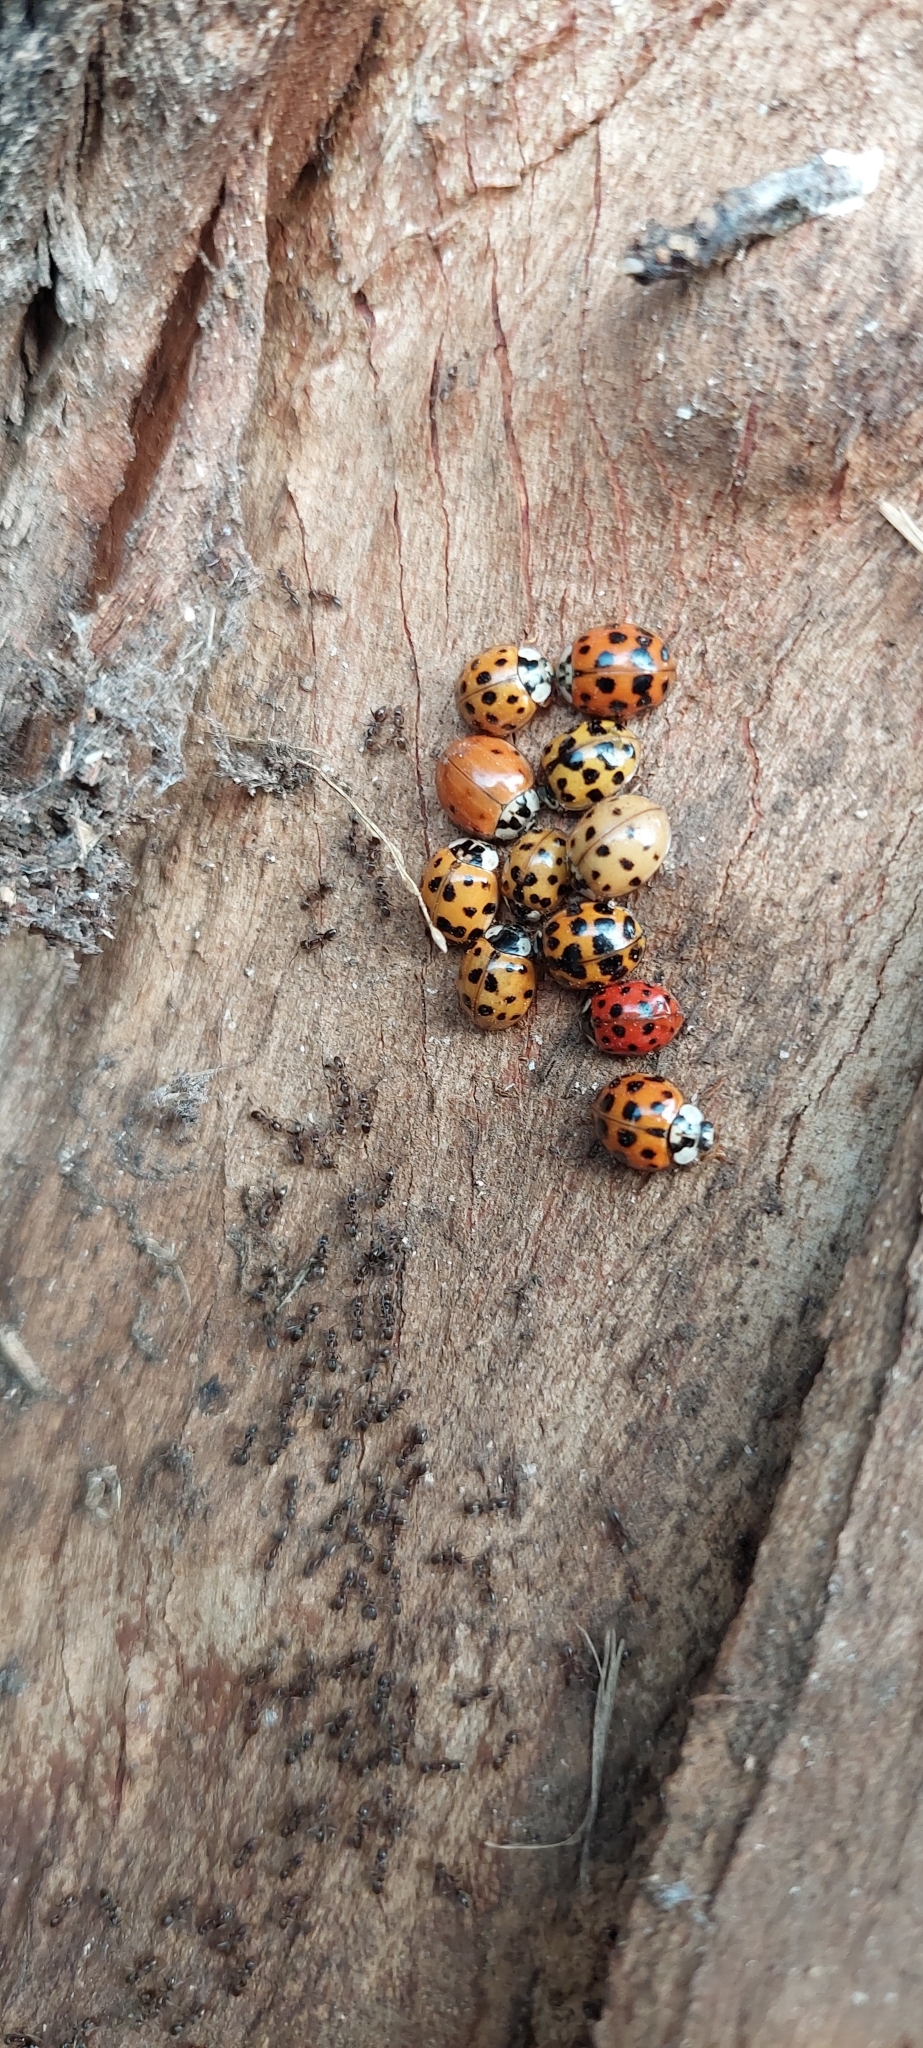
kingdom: Animalia
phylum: Arthropoda
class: Insecta
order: Coleoptera
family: Coccinellidae
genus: Harmonia
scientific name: Harmonia axyridis
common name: Harlequin ladybird
